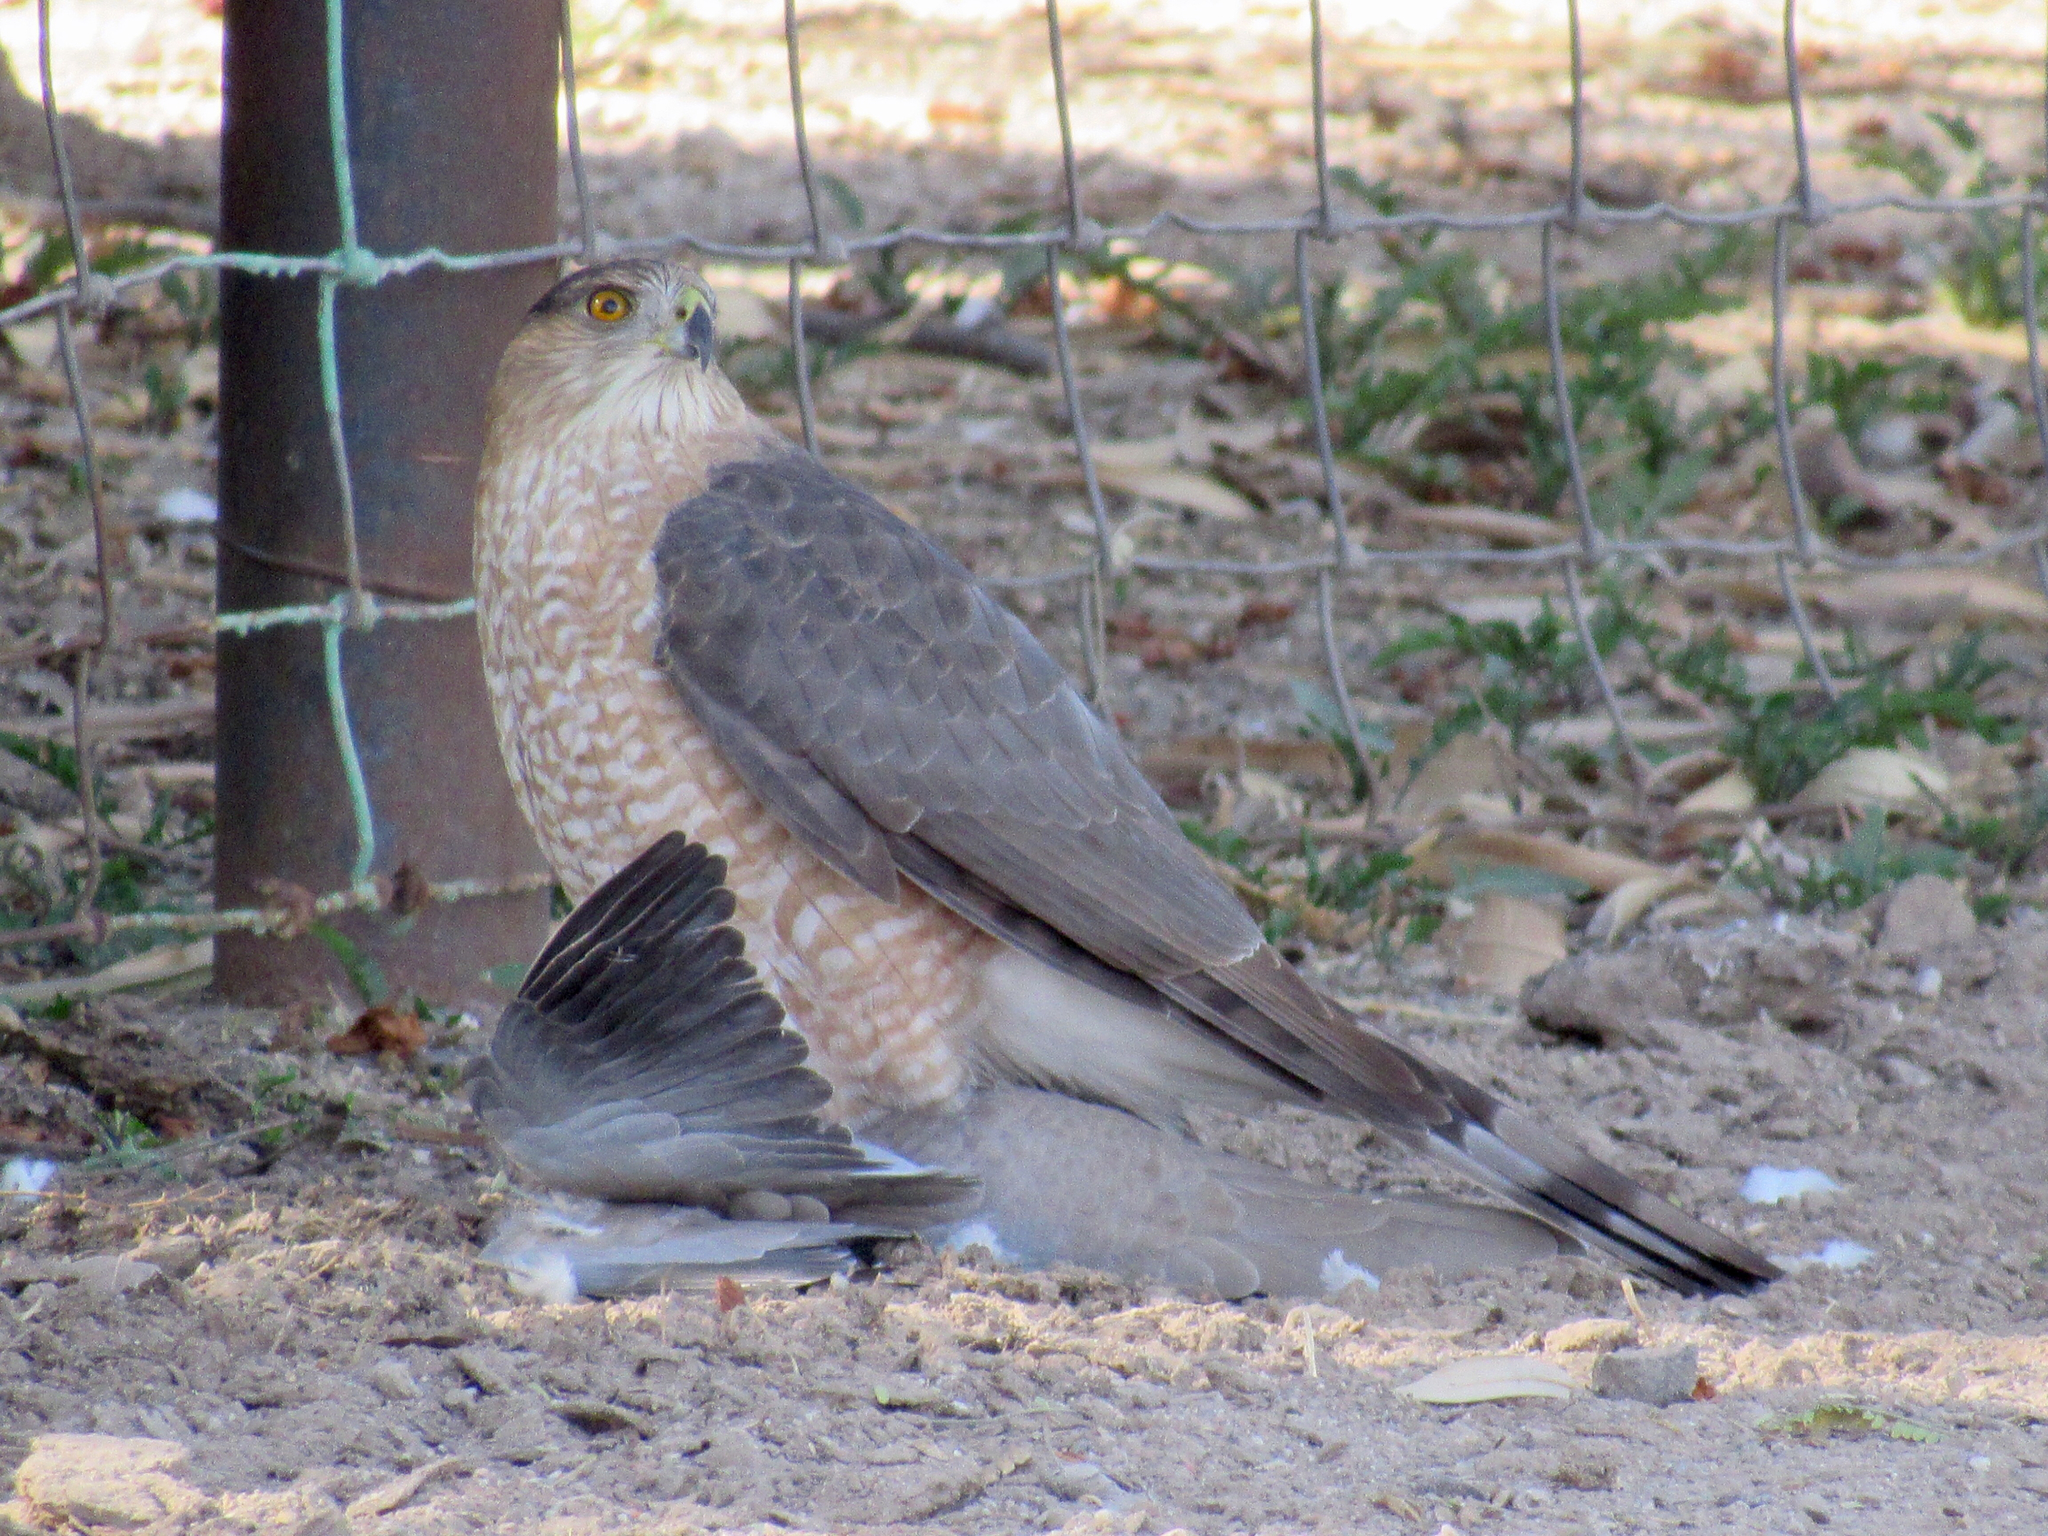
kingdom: Animalia
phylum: Chordata
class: Aves
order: Accipitriformes
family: Accipitridae
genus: Accipiter
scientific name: Accipiter cooperii
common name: Cooper's hawk
